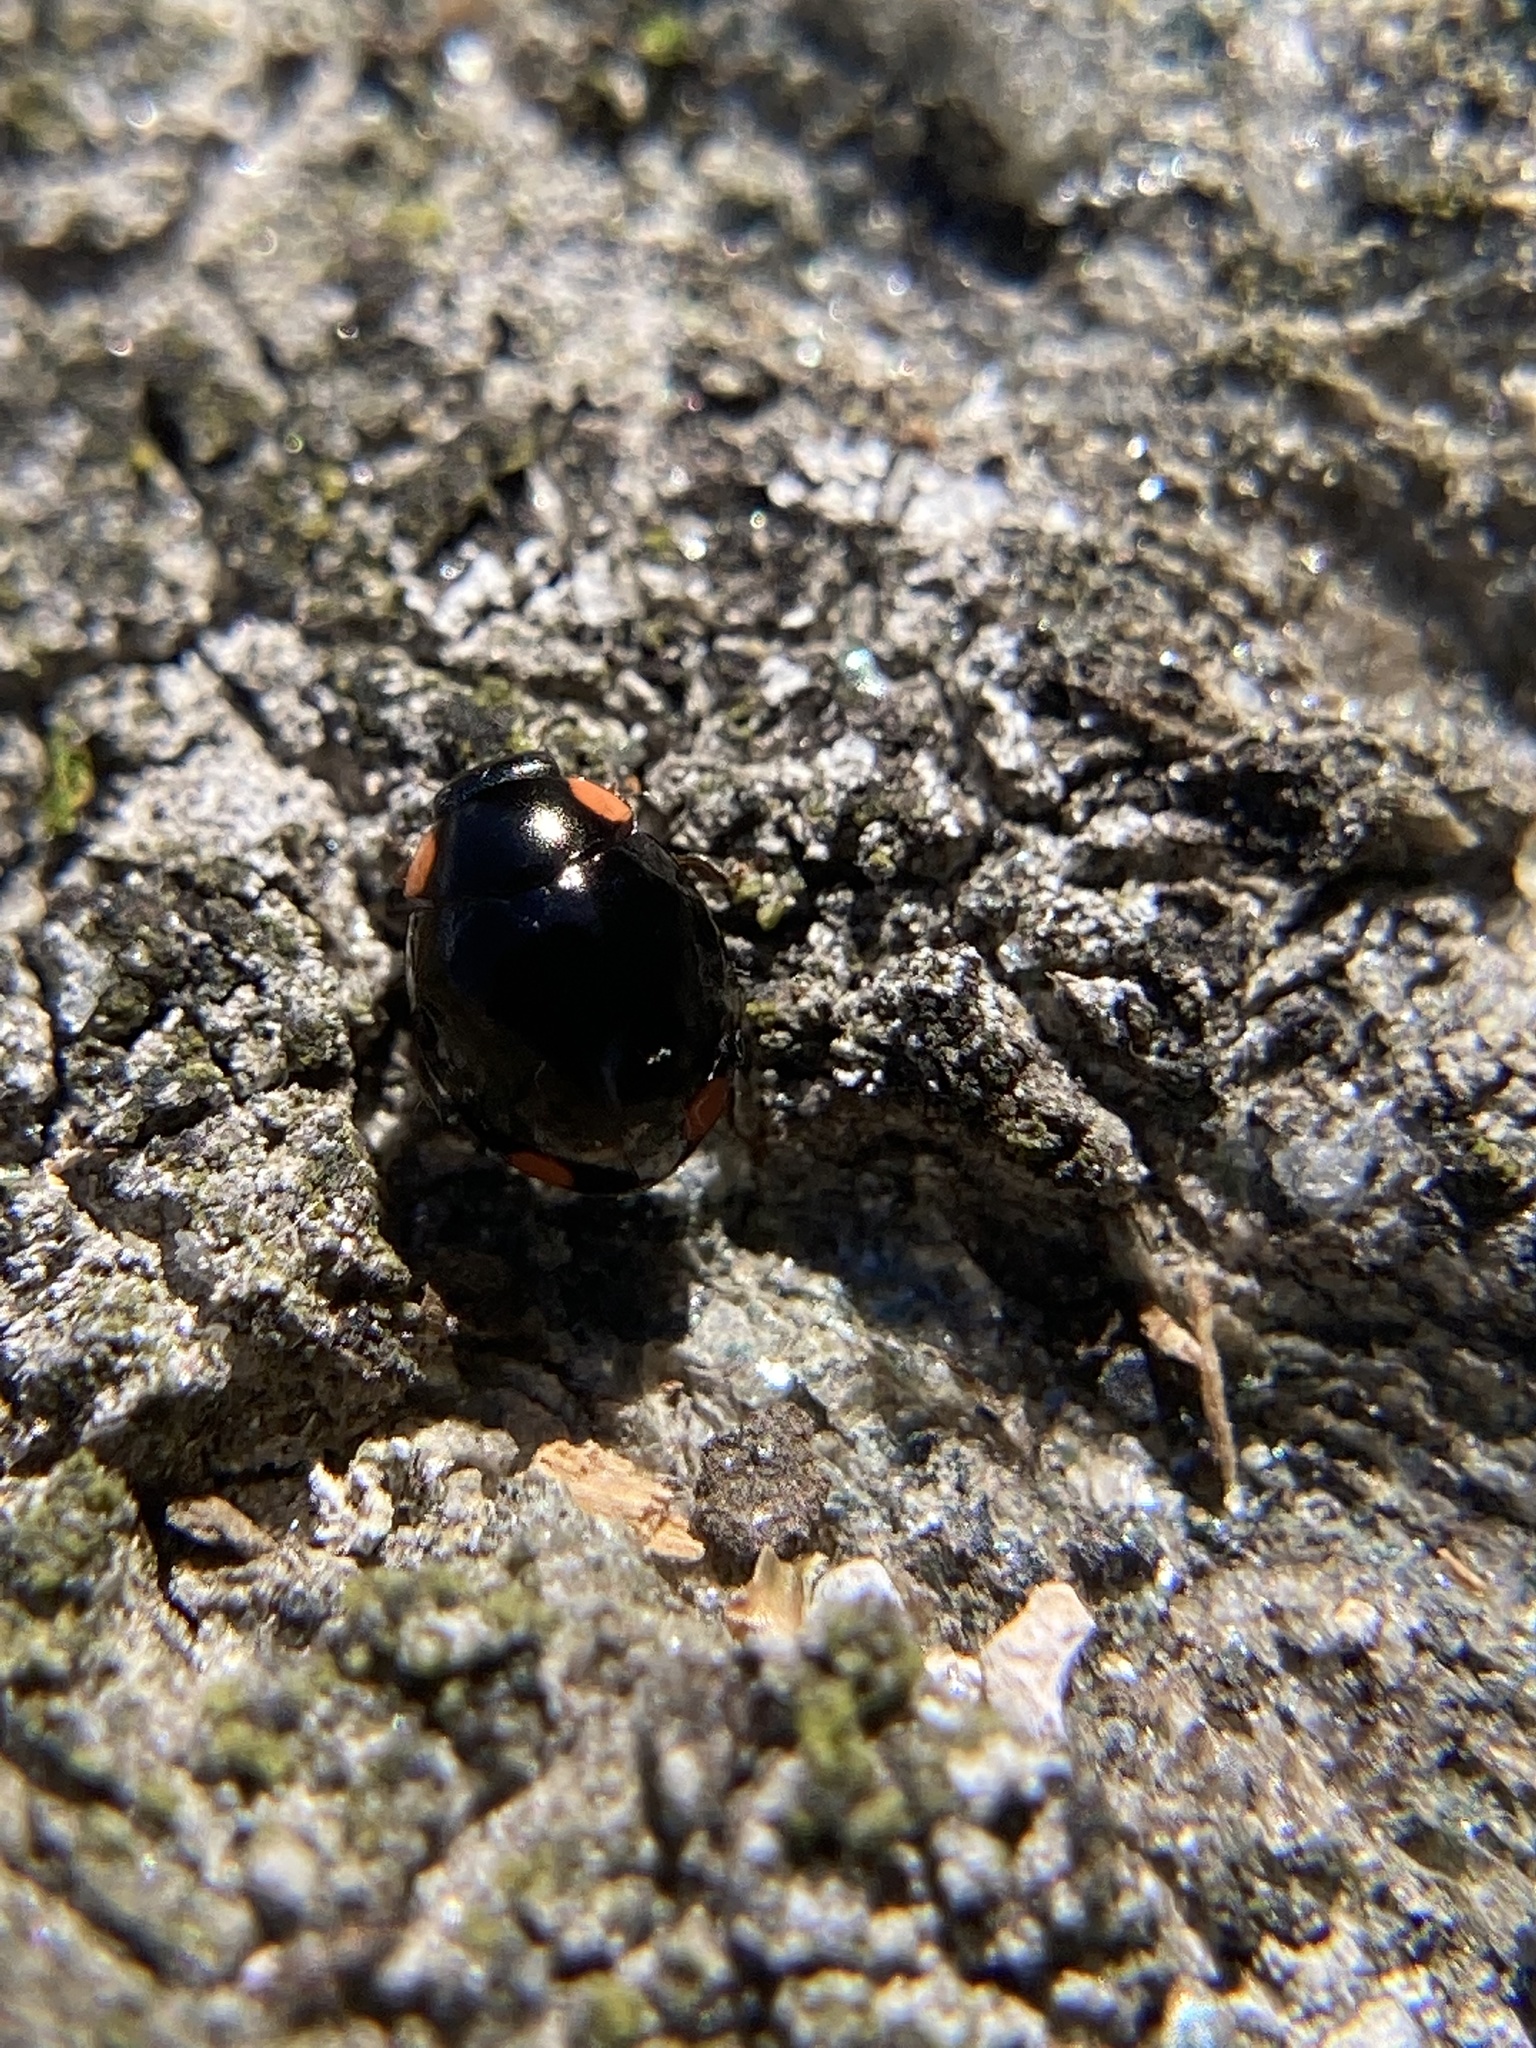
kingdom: Animalia
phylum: Arthropoda
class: Insecta
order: Coleoptera
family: Coccinellidae
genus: Hyperaspis
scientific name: Hyperaspis bigeminata
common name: Bigeminate sigil lady beetle
